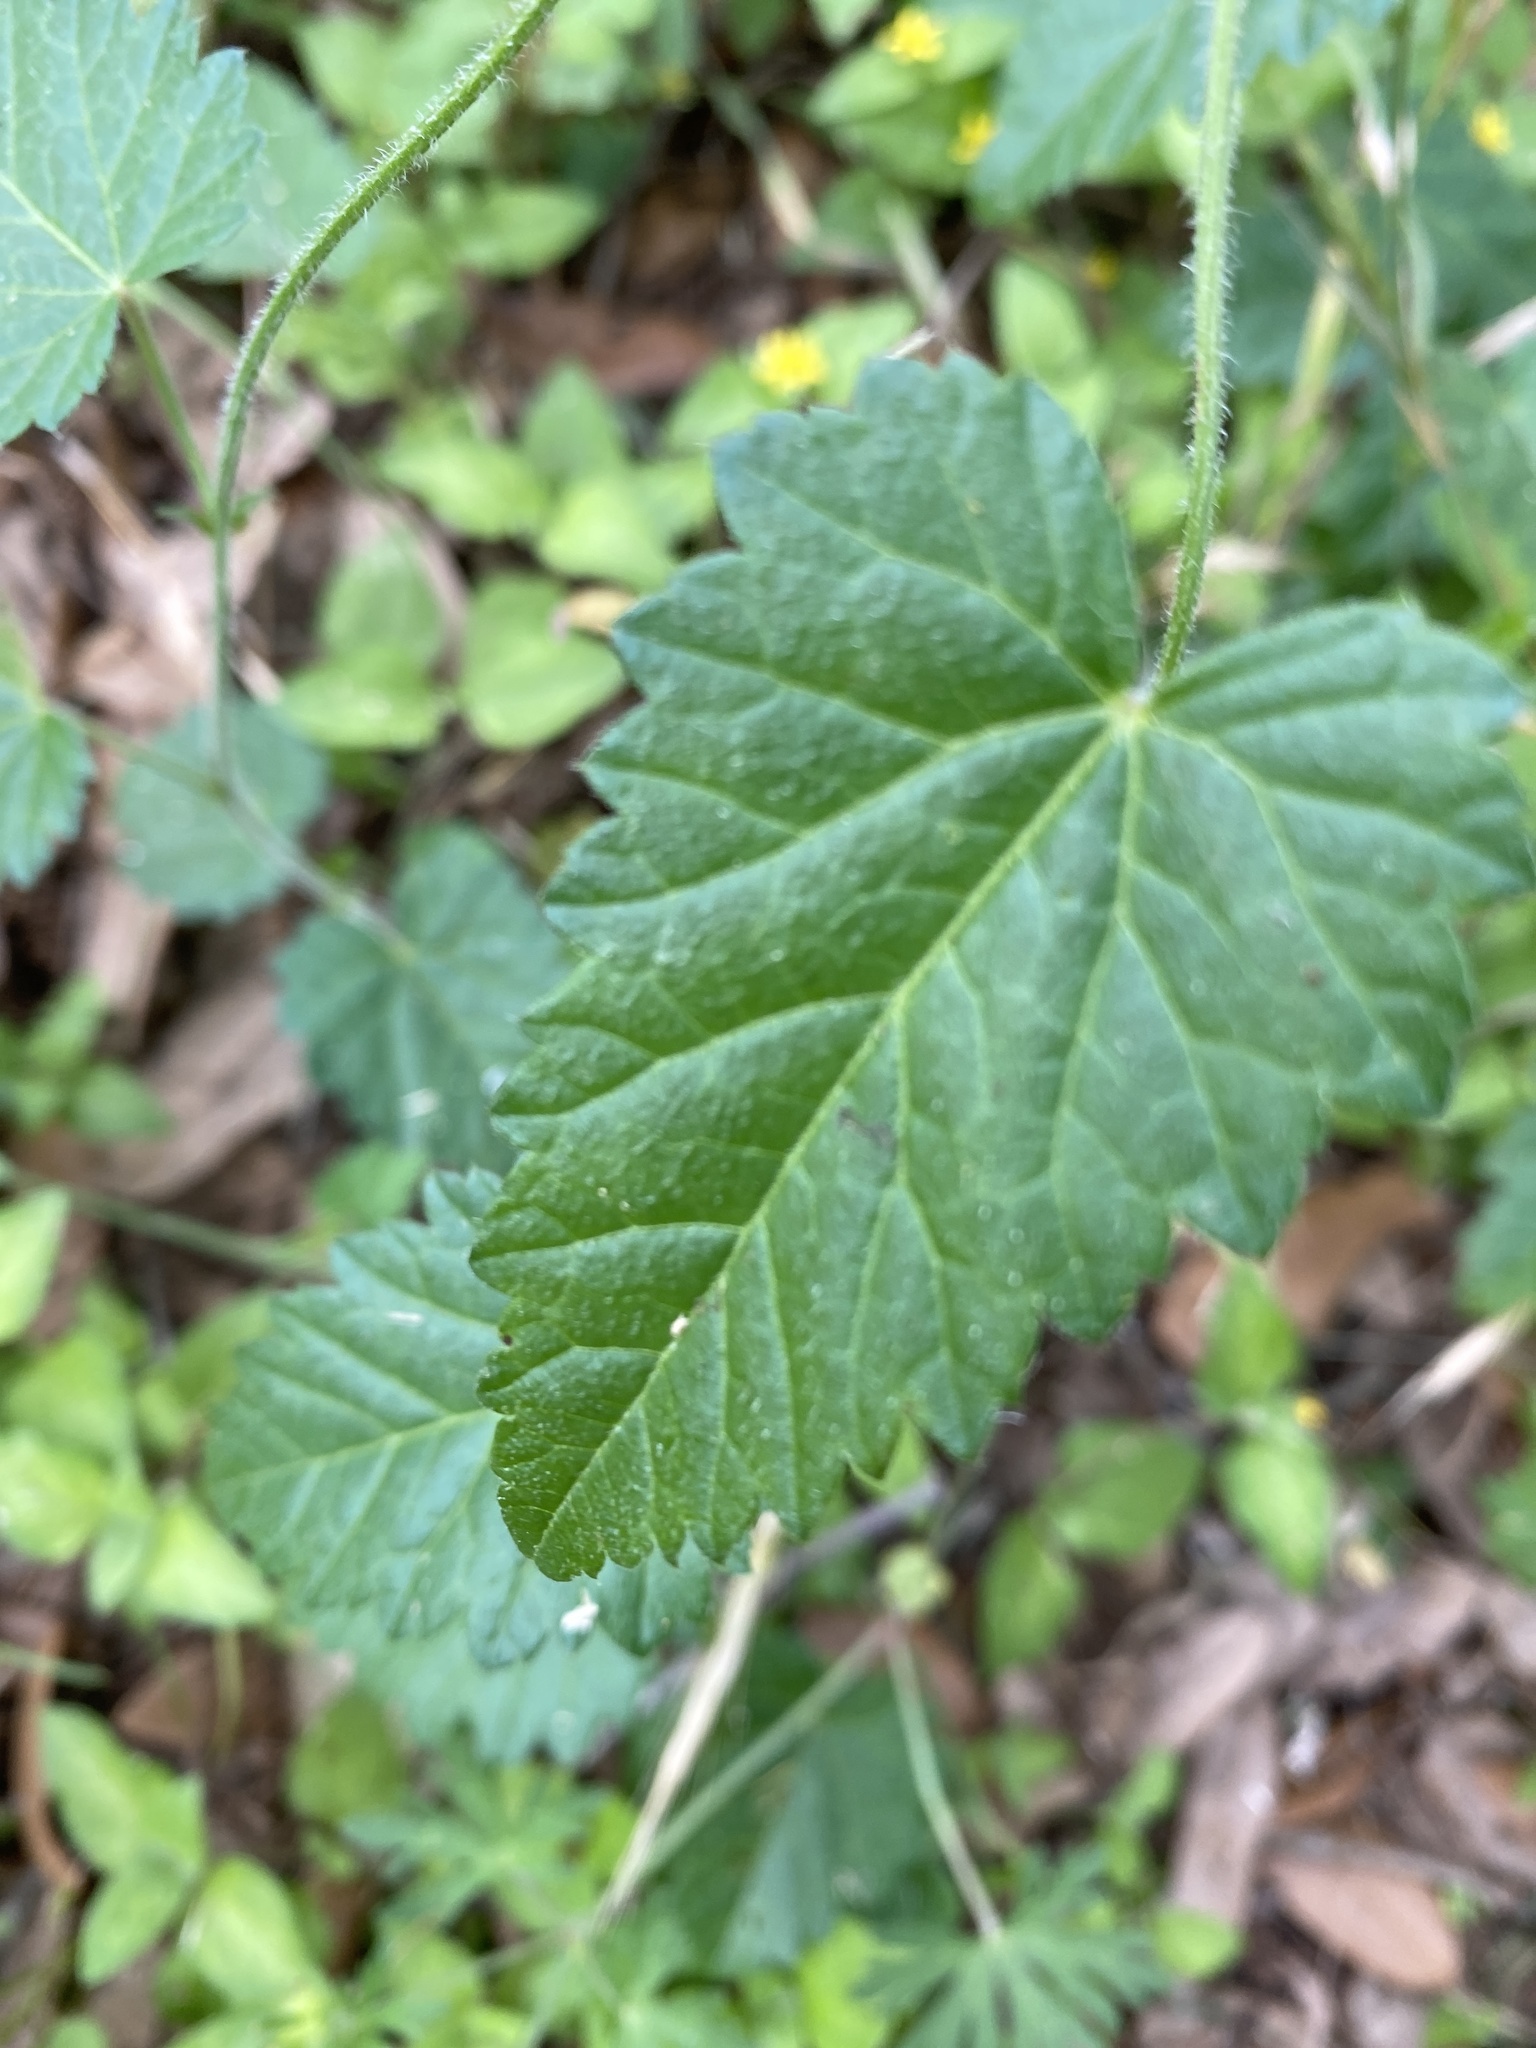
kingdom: Plantae
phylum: Tracheophyta
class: Magnoliopsida
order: Malpighiales
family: Euphorbiaceae
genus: Tragia
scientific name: Tragia urticifolia
